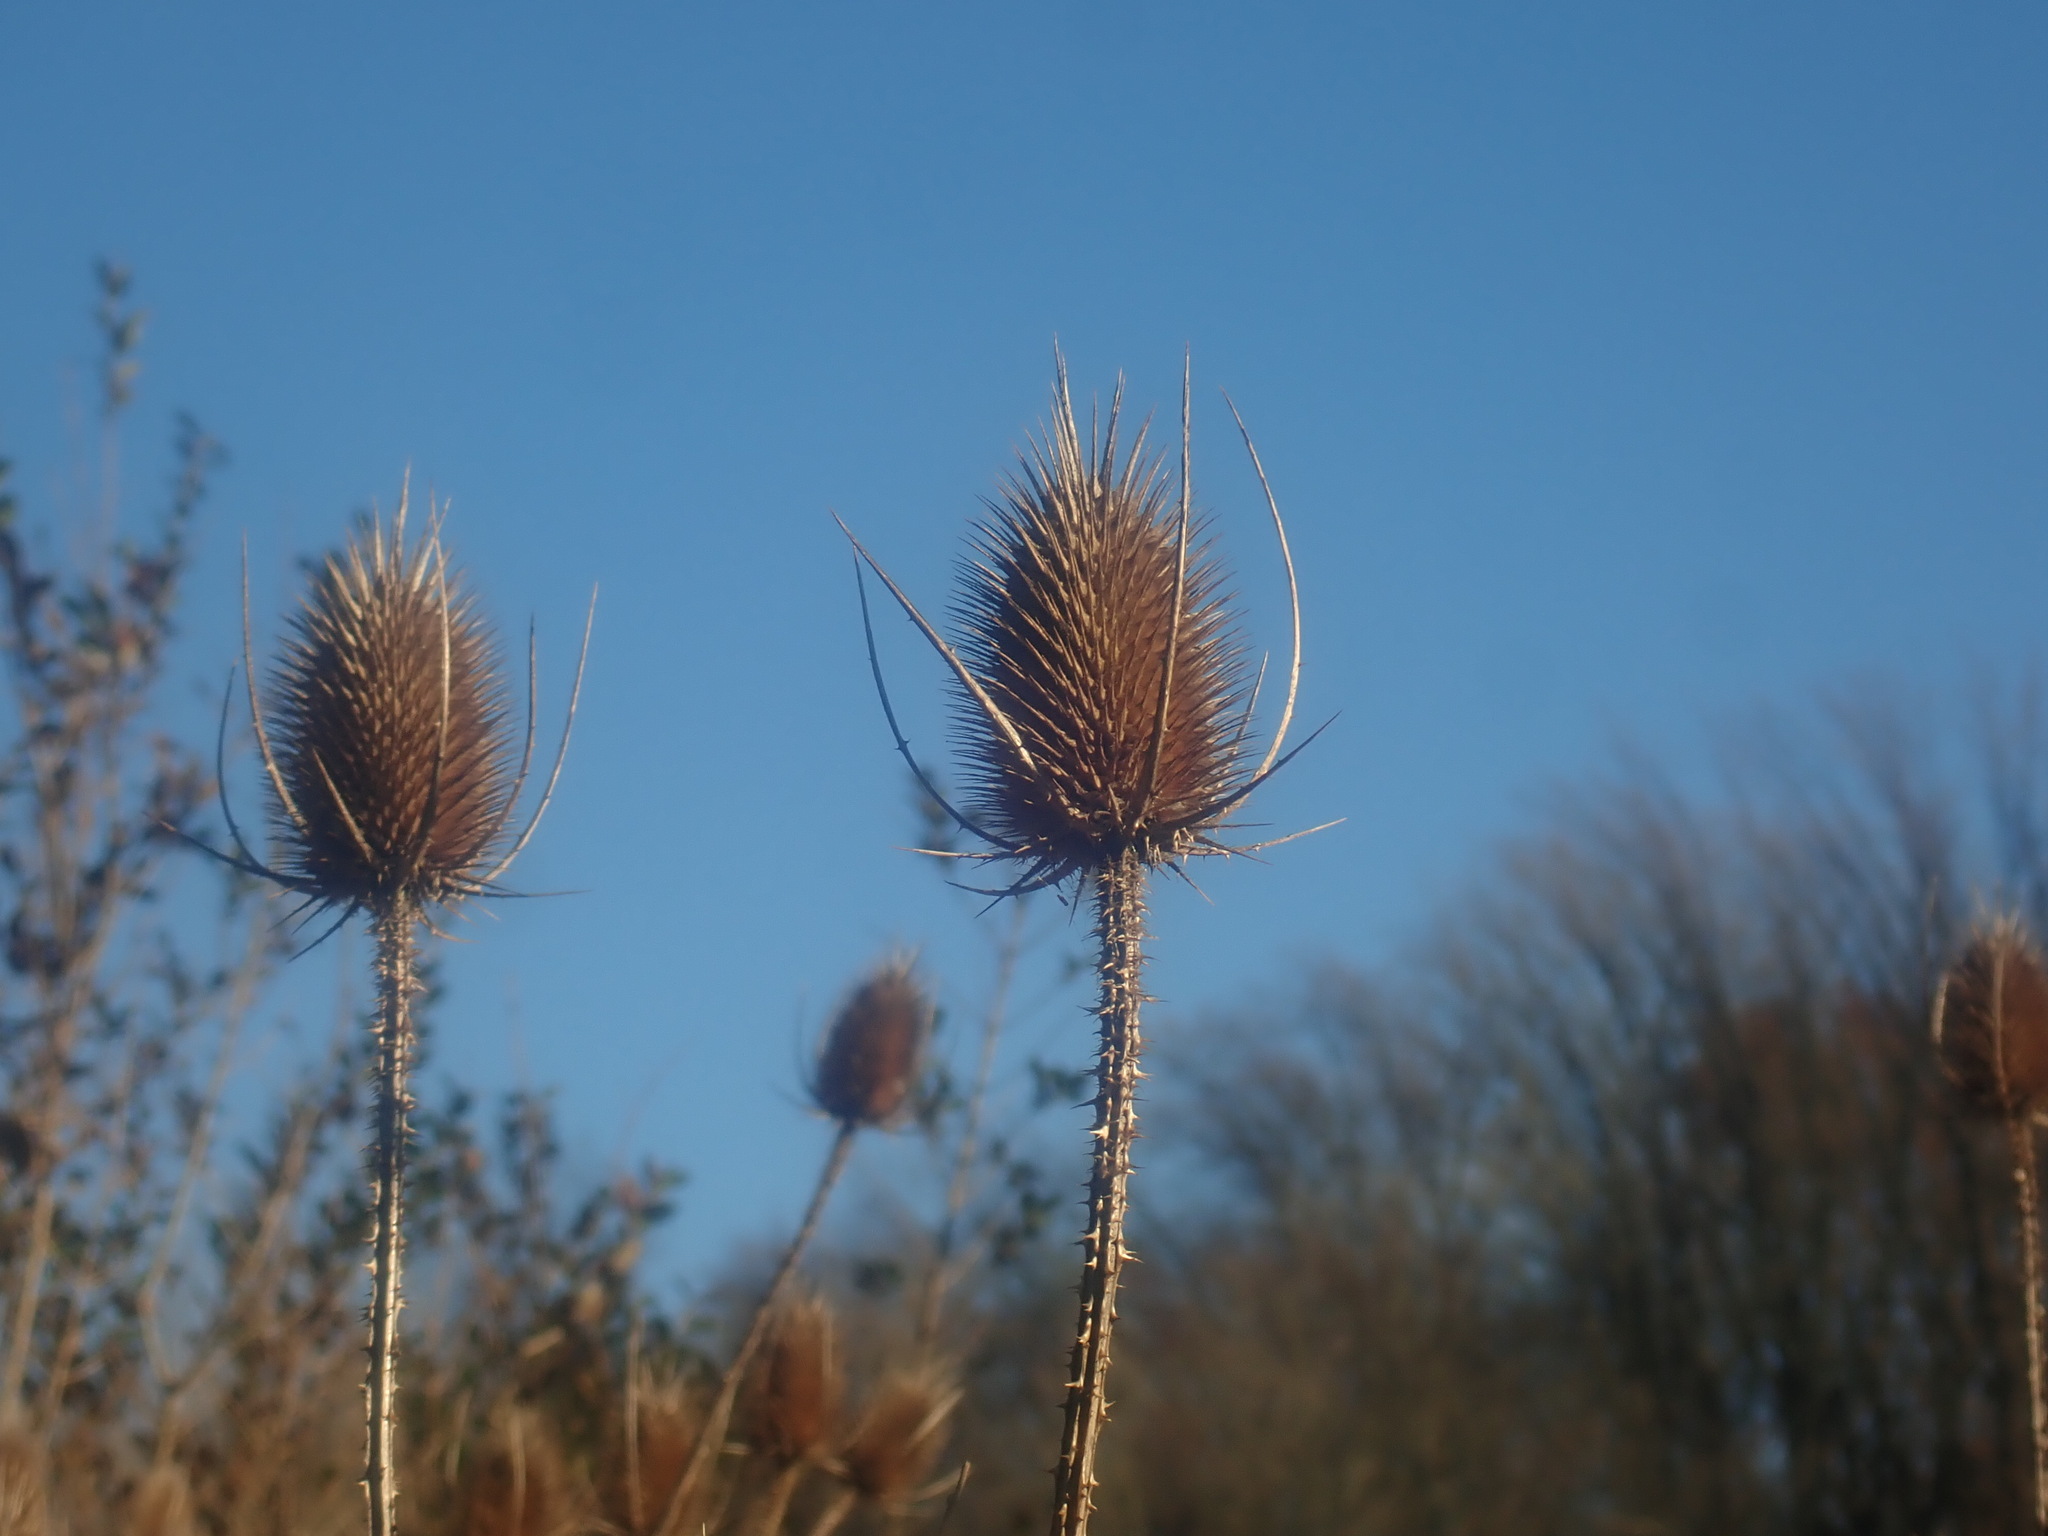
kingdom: Plantae
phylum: Tracheophyta
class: Magnoliopsida
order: Dipsacales
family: Caprifoliaceae
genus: Dipsacus
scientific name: Dipsacus fullonum
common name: Teasel
